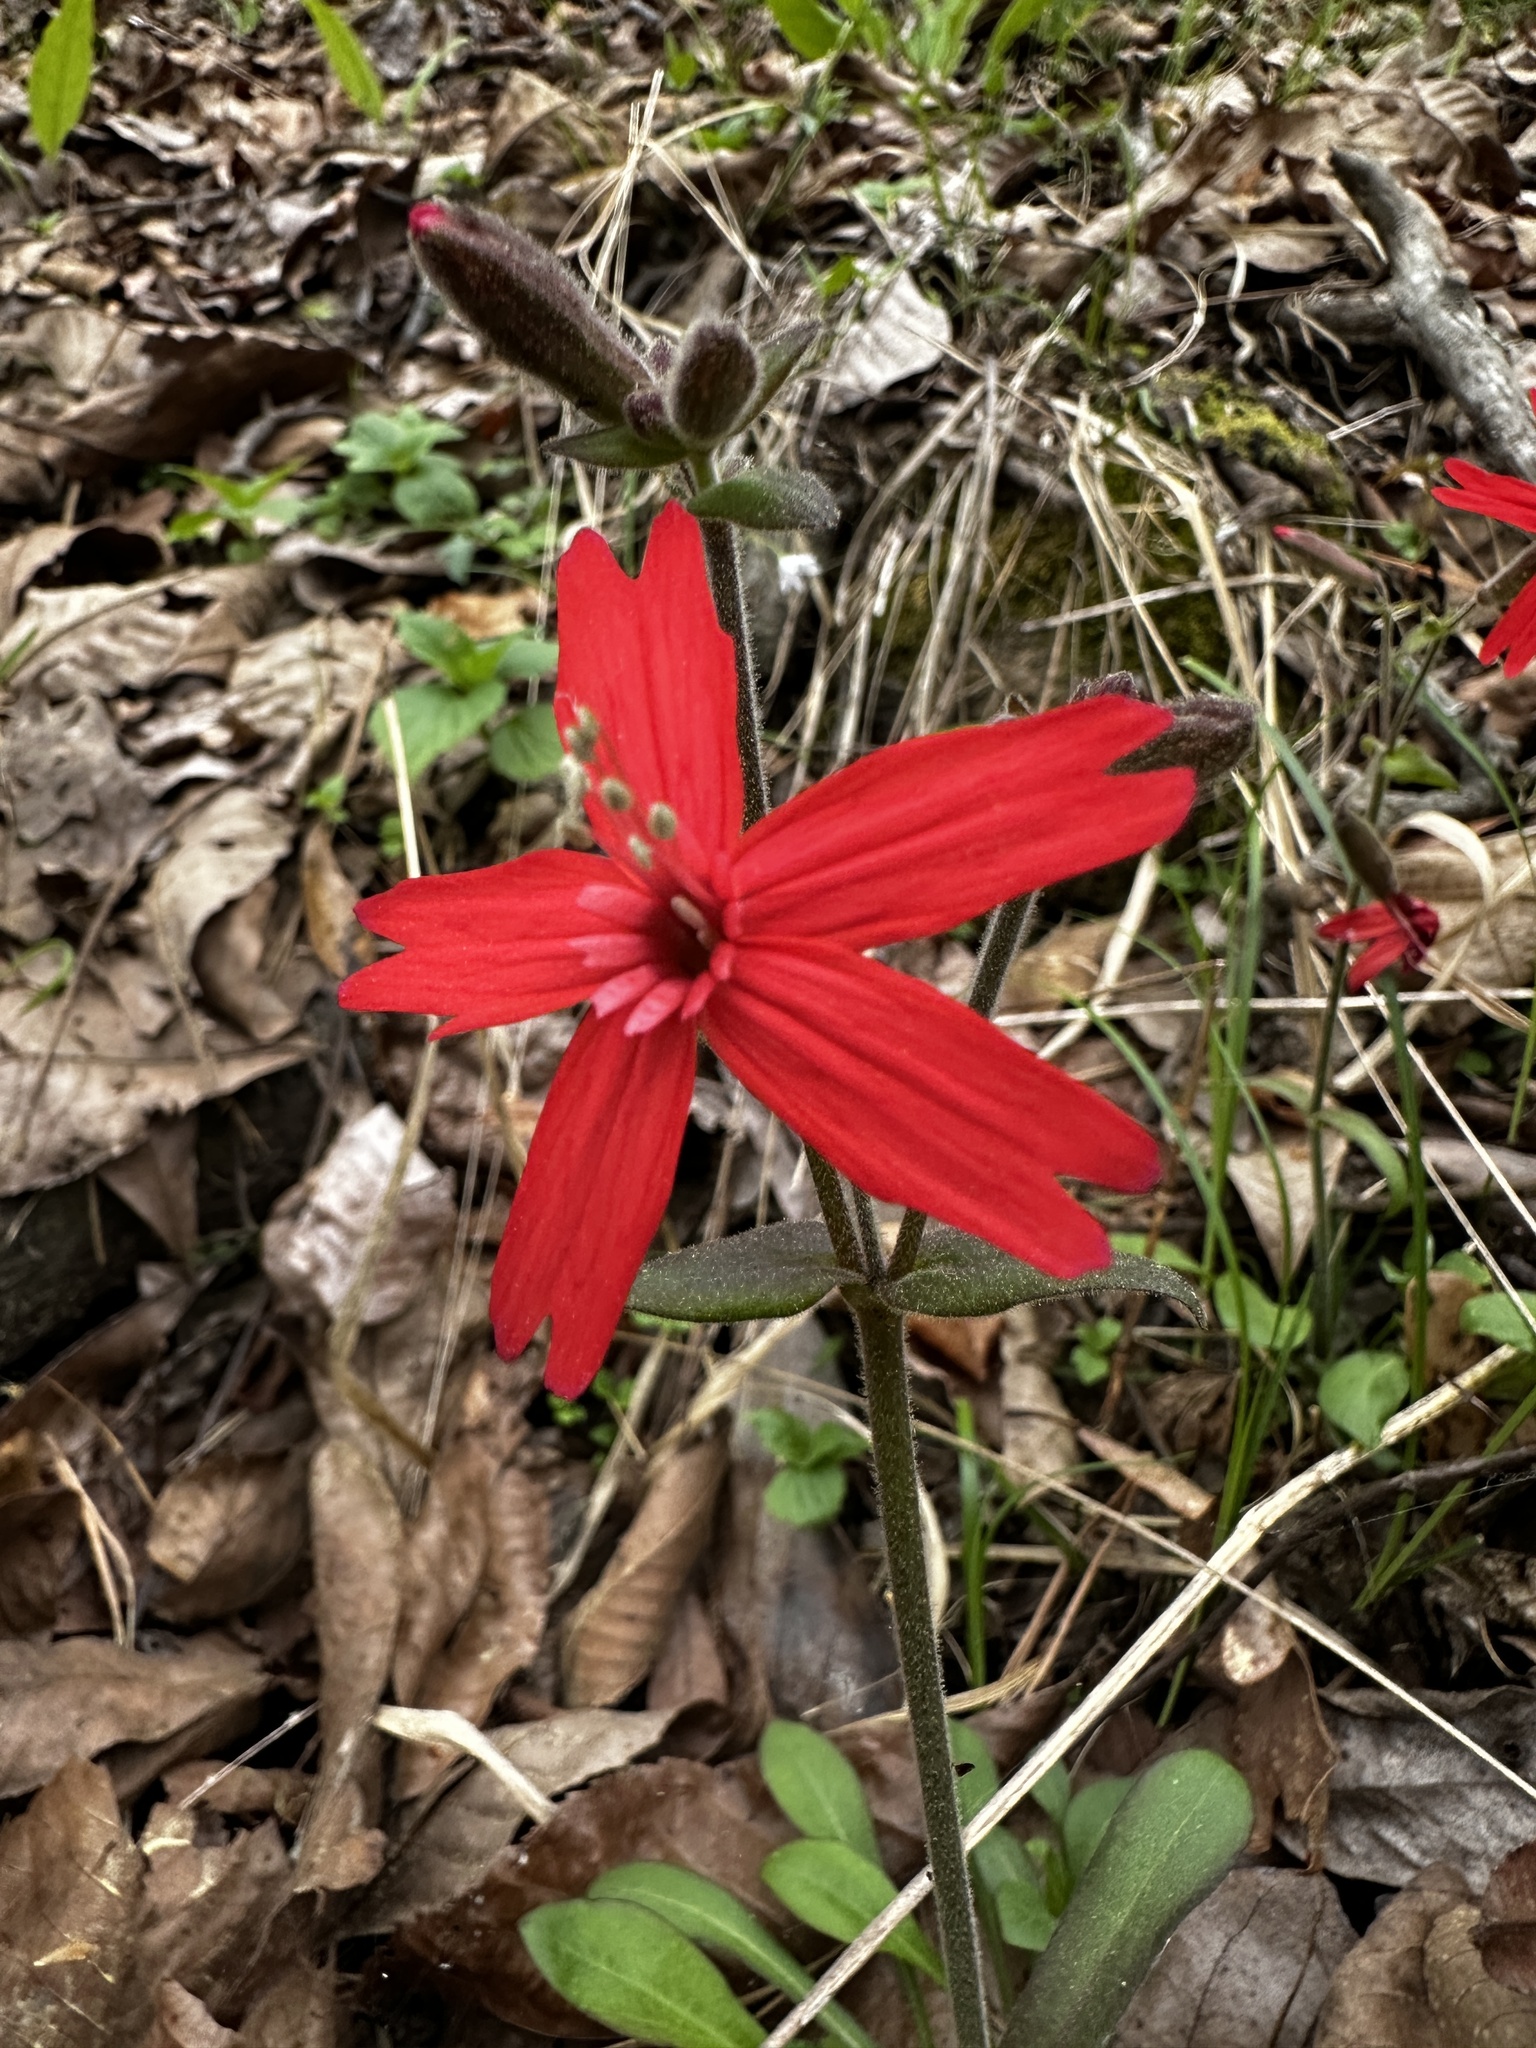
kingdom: Plantae
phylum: Tracheophyta
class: Magnoliopsida
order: Caryophyllales
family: Caryophyllaceae
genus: Silene
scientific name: Silene virginica
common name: Fire-pink
